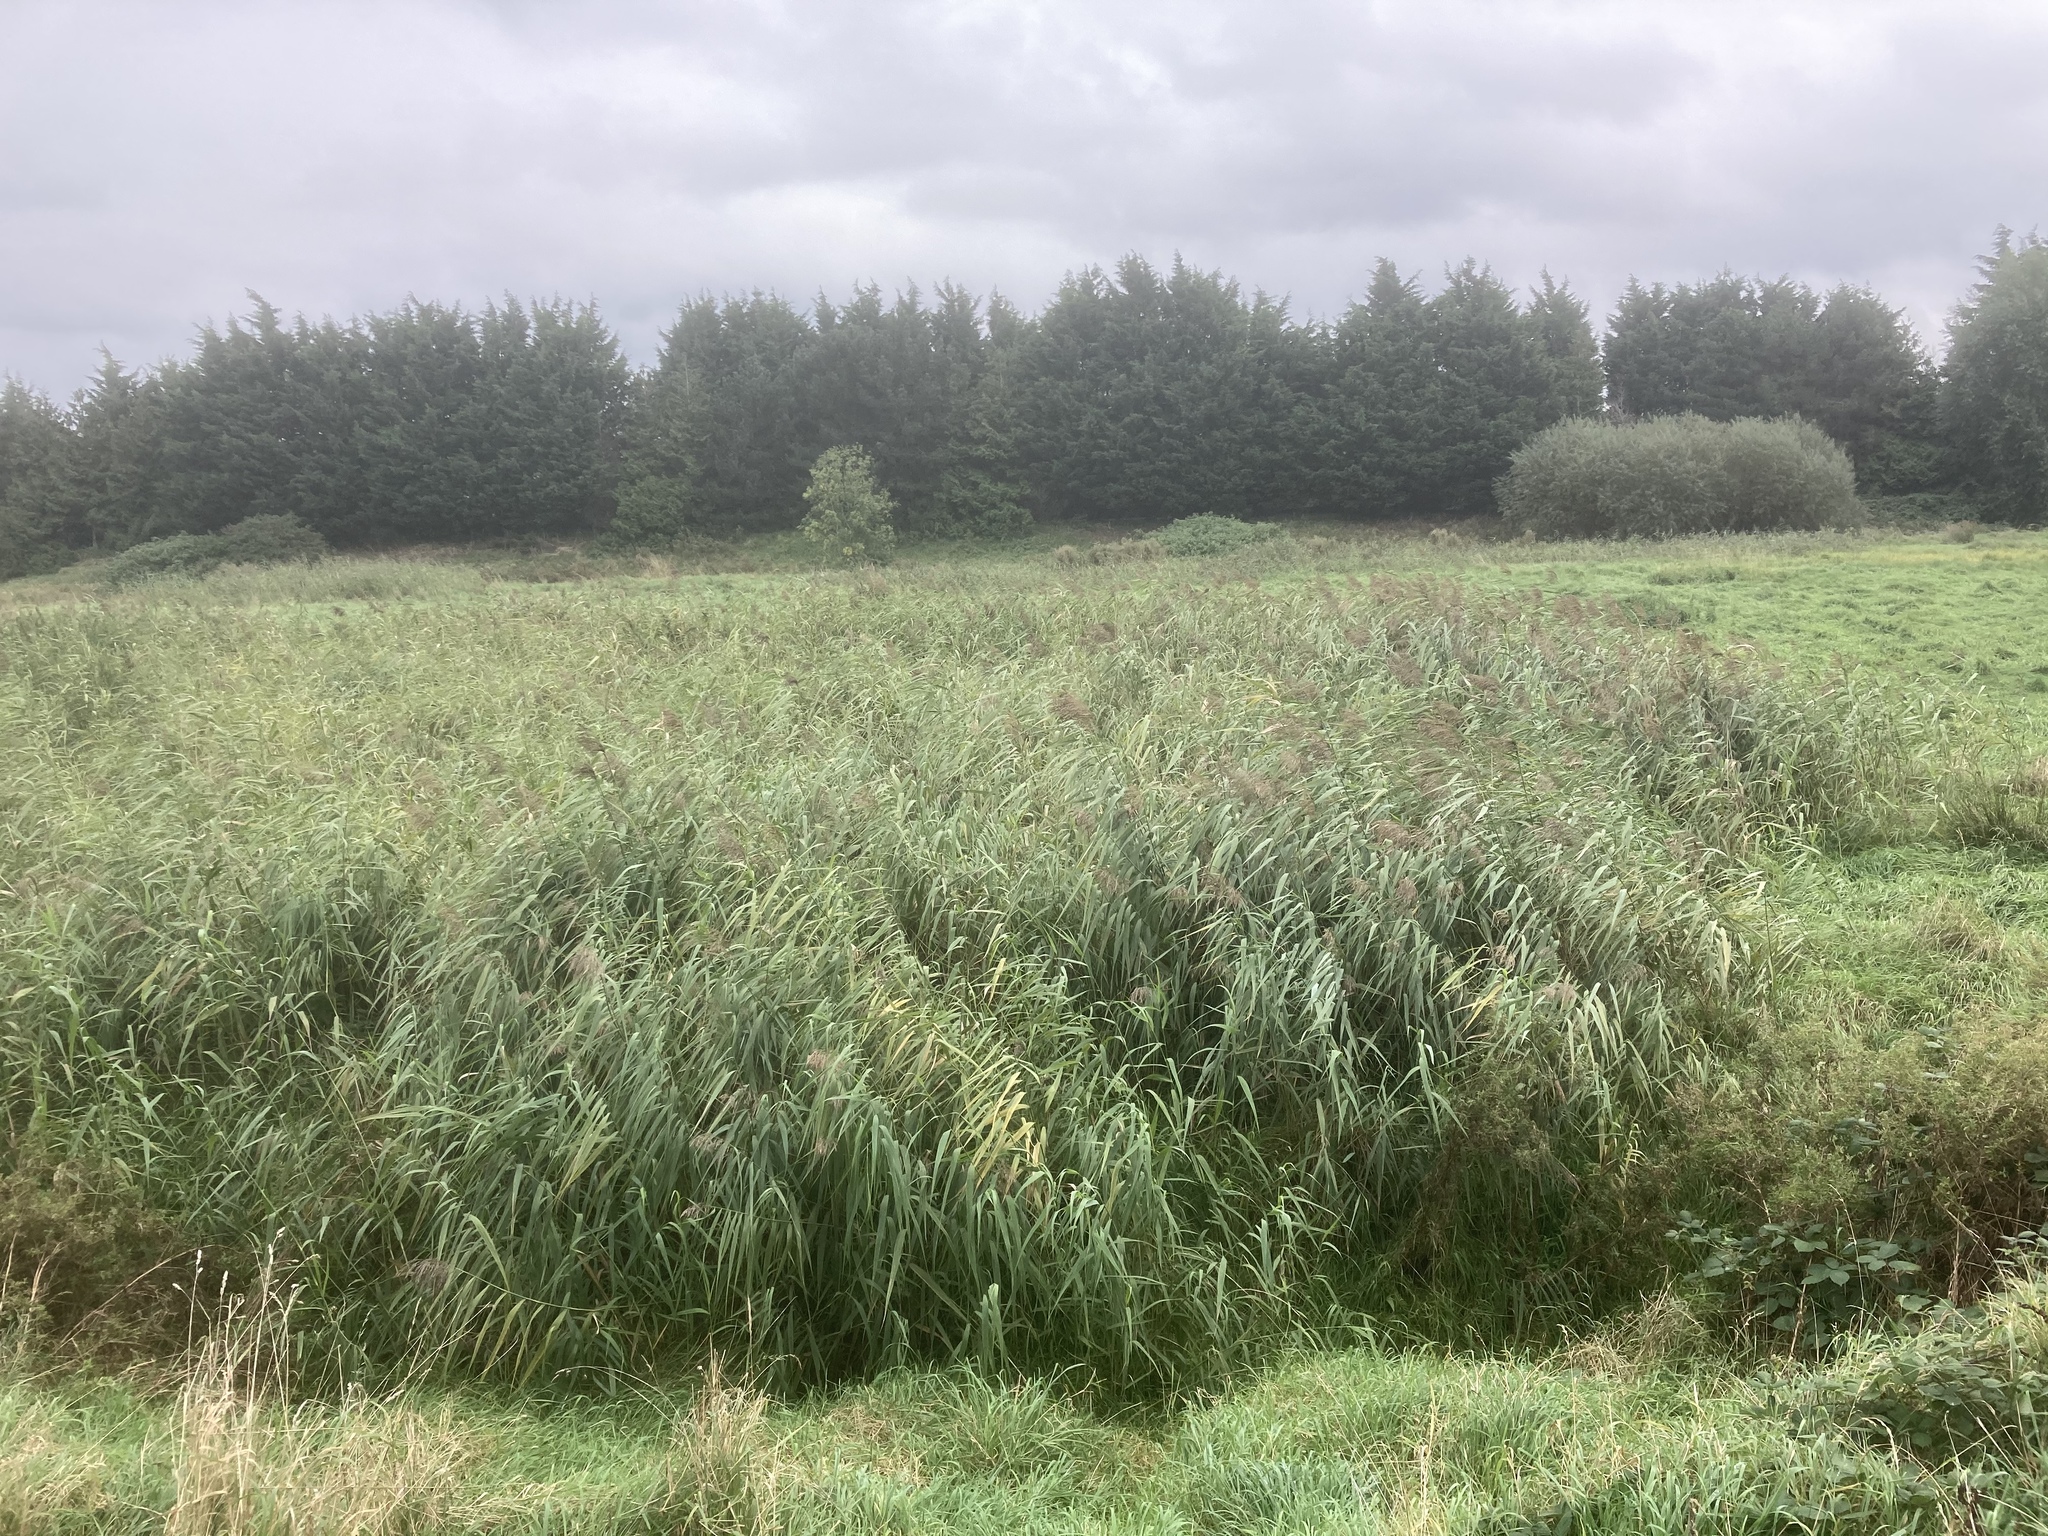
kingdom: Plantae
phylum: Tracheophyta
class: Liliopsida
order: Poales
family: Poaceae
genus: Phragmites
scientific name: Phragmites australis
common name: Common reed
